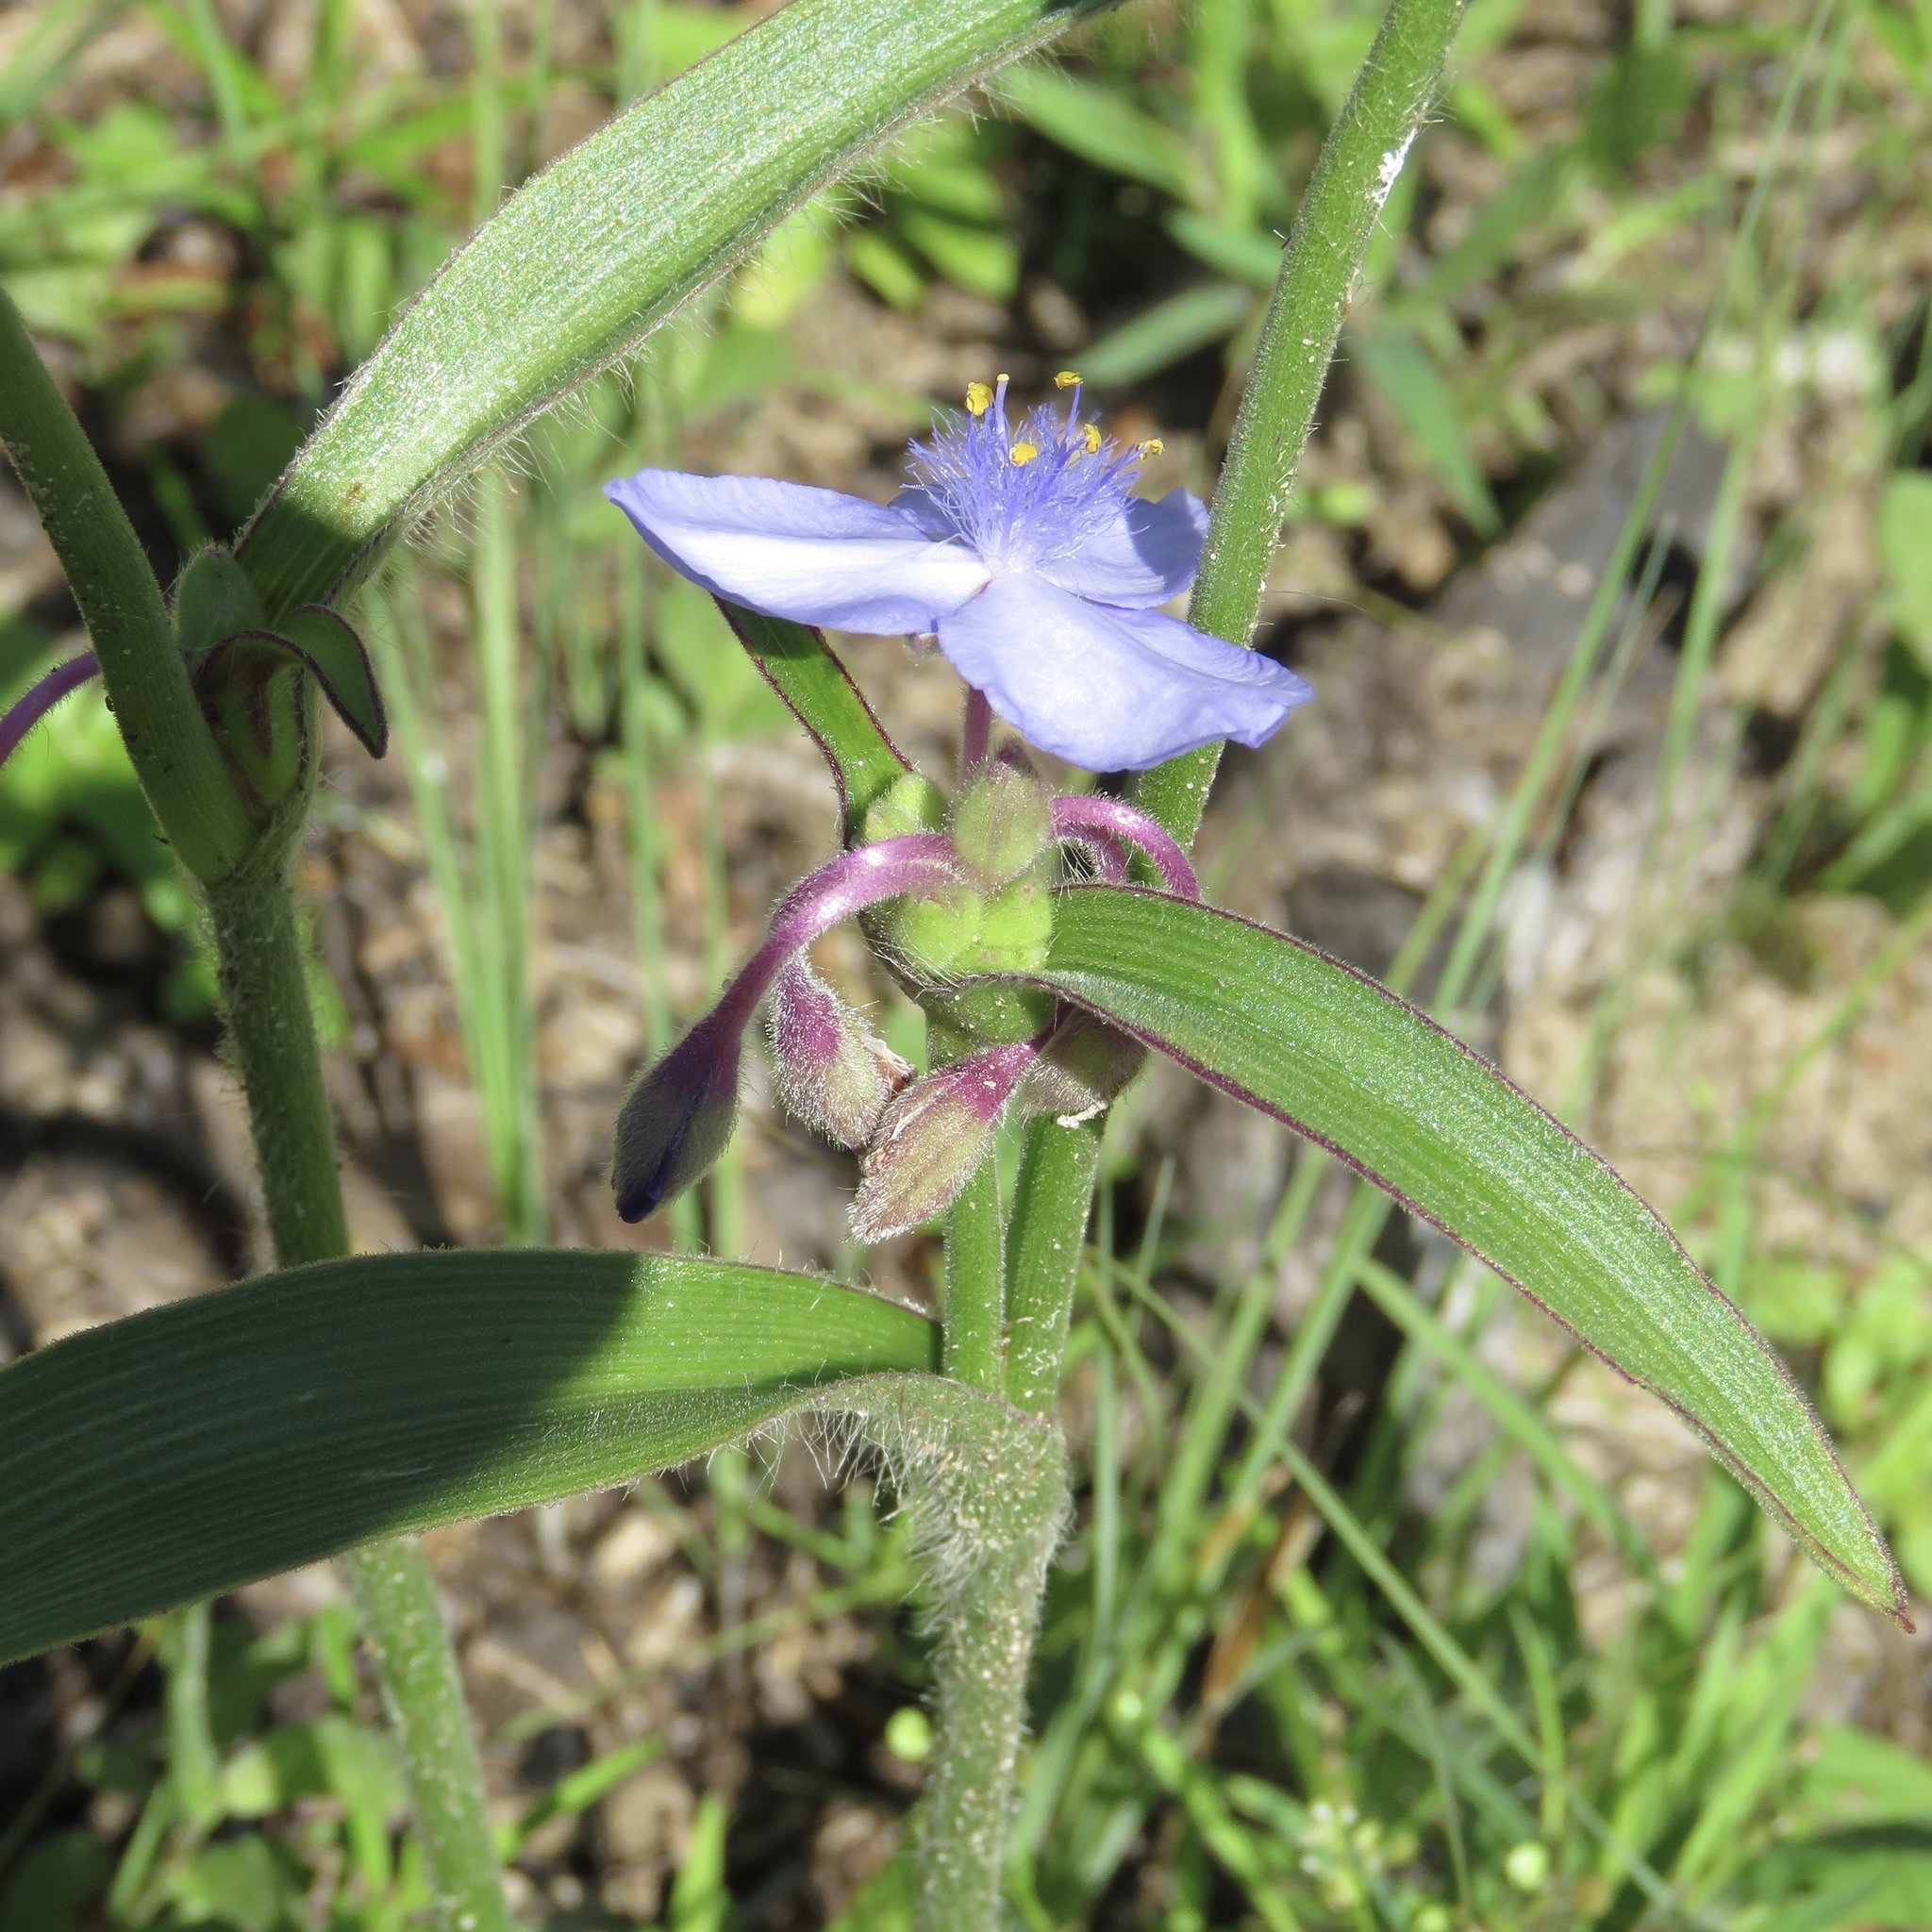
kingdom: Plantae
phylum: Tracheophyta
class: Liliopsida
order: Commelinales
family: Commelinaceae
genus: Tradescantia
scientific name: Tradescantia hirsutiflora
